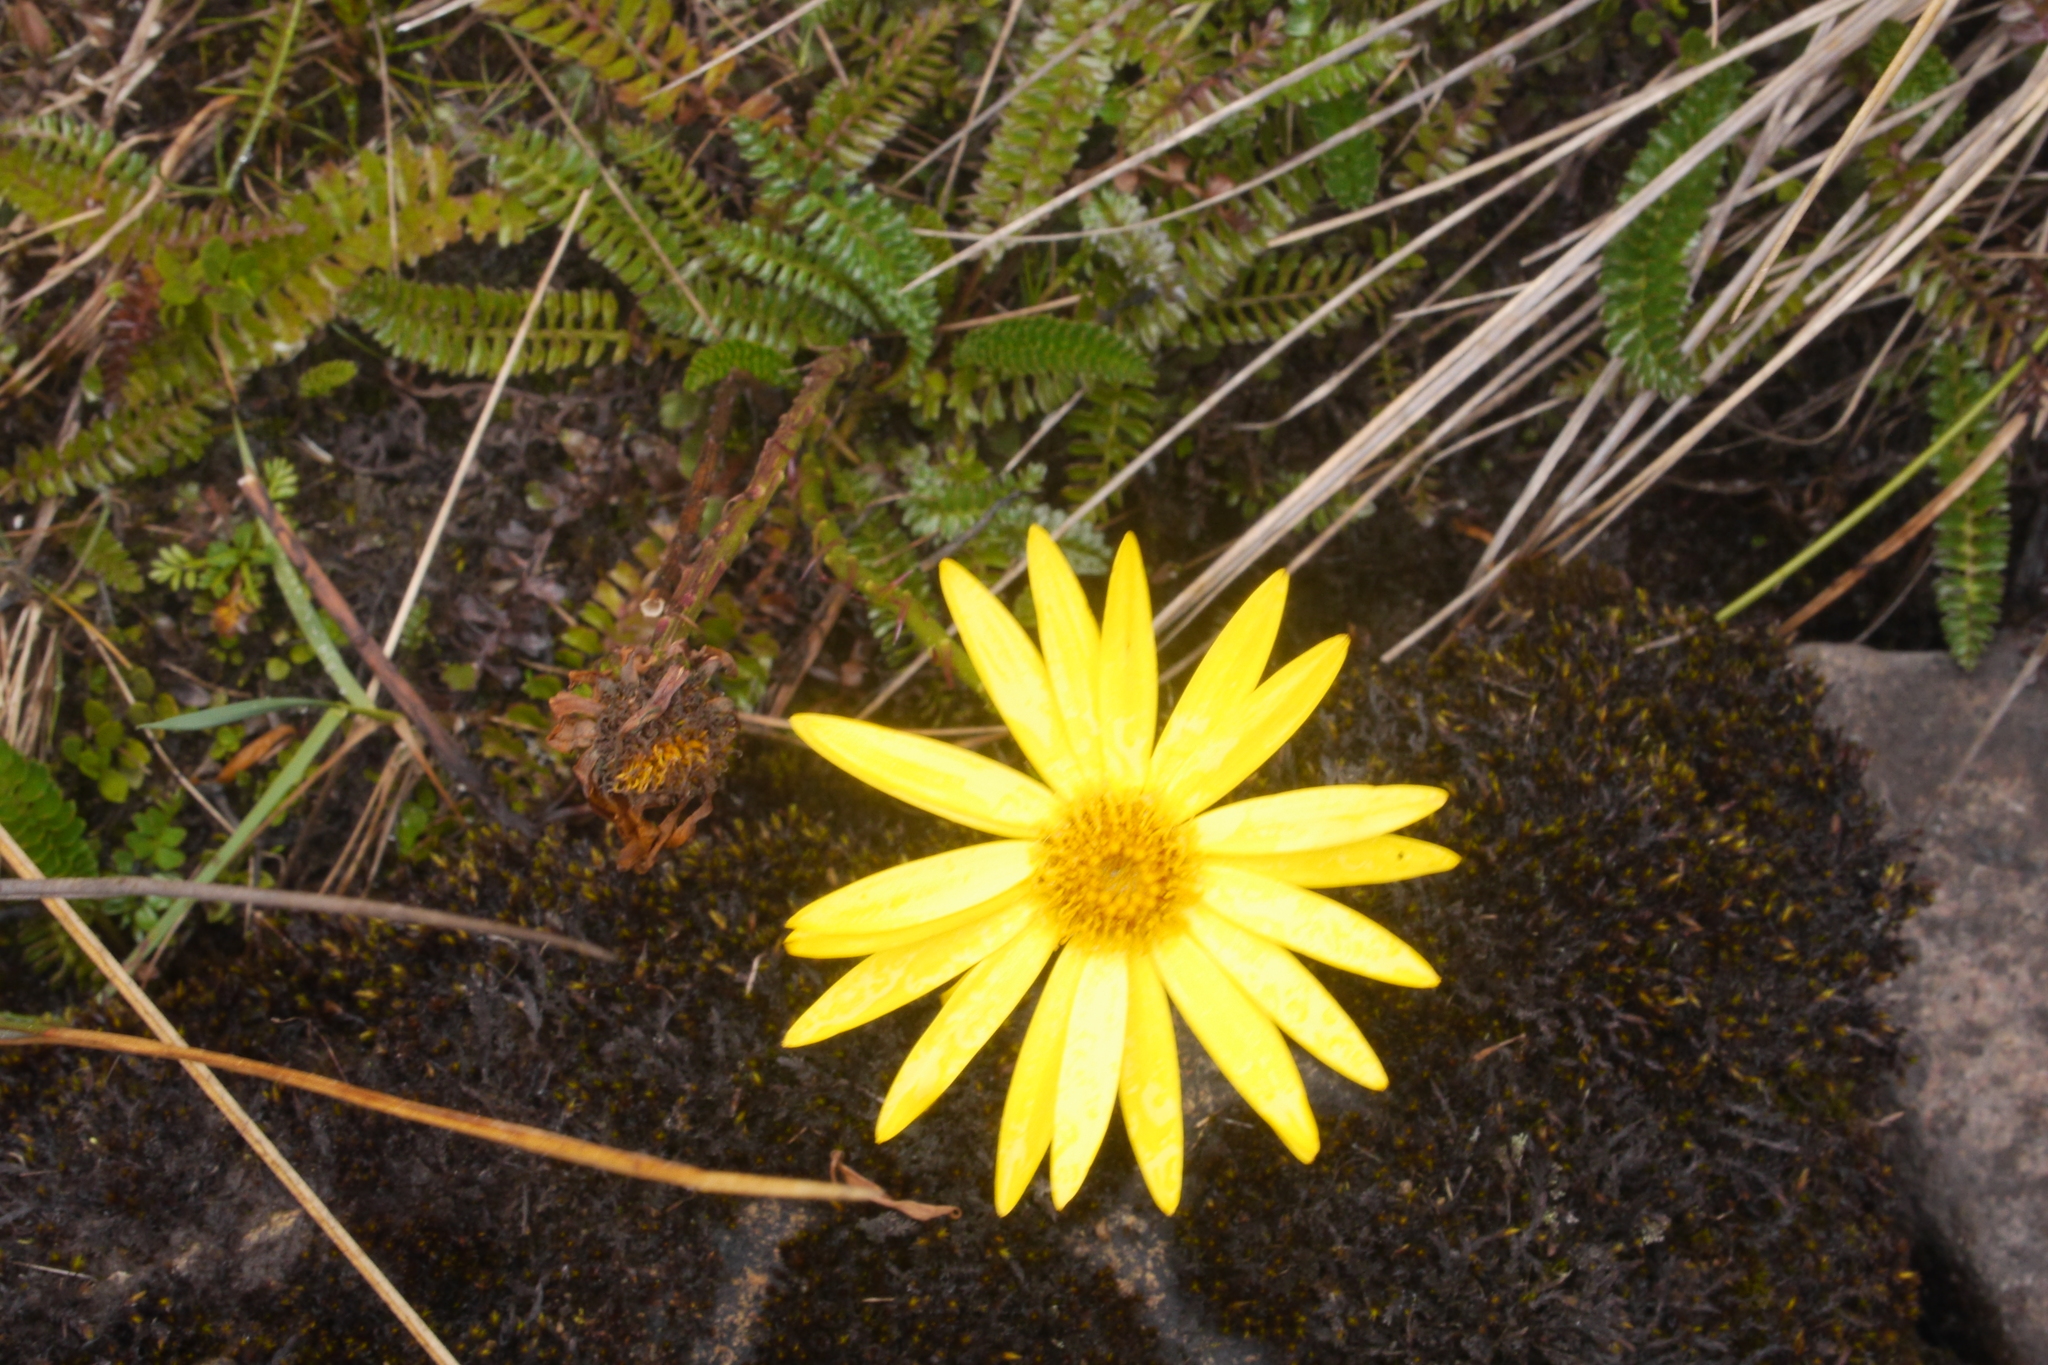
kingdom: Plantae
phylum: Tracheophyta
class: Magnoliopsida
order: Asterales
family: Asteraceae
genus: Dorobaea
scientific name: Dorobaea pimpinellifolia
